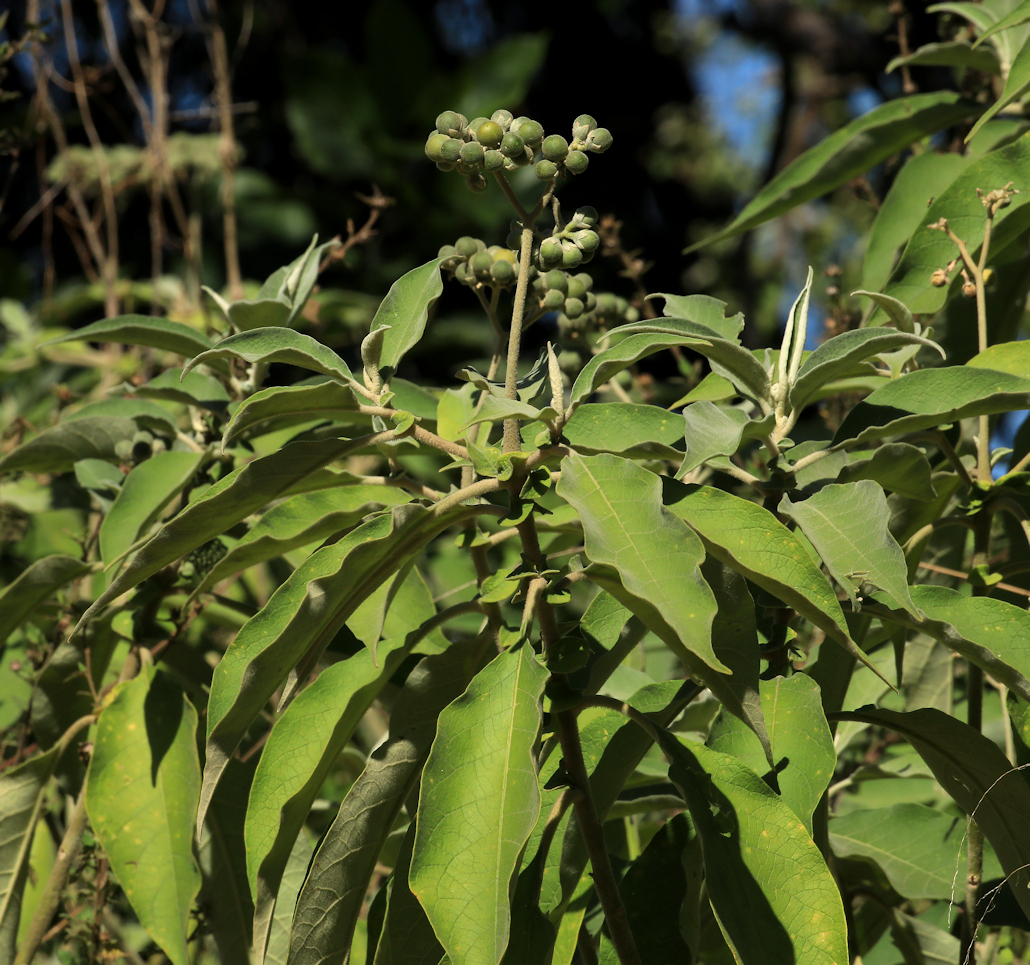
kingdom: Plantae
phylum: Tracheophyta
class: Magnoliopsida
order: Solanales
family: Solanaceae
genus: Solanum
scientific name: Solanum mauritianum
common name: Earleaf nightshade
